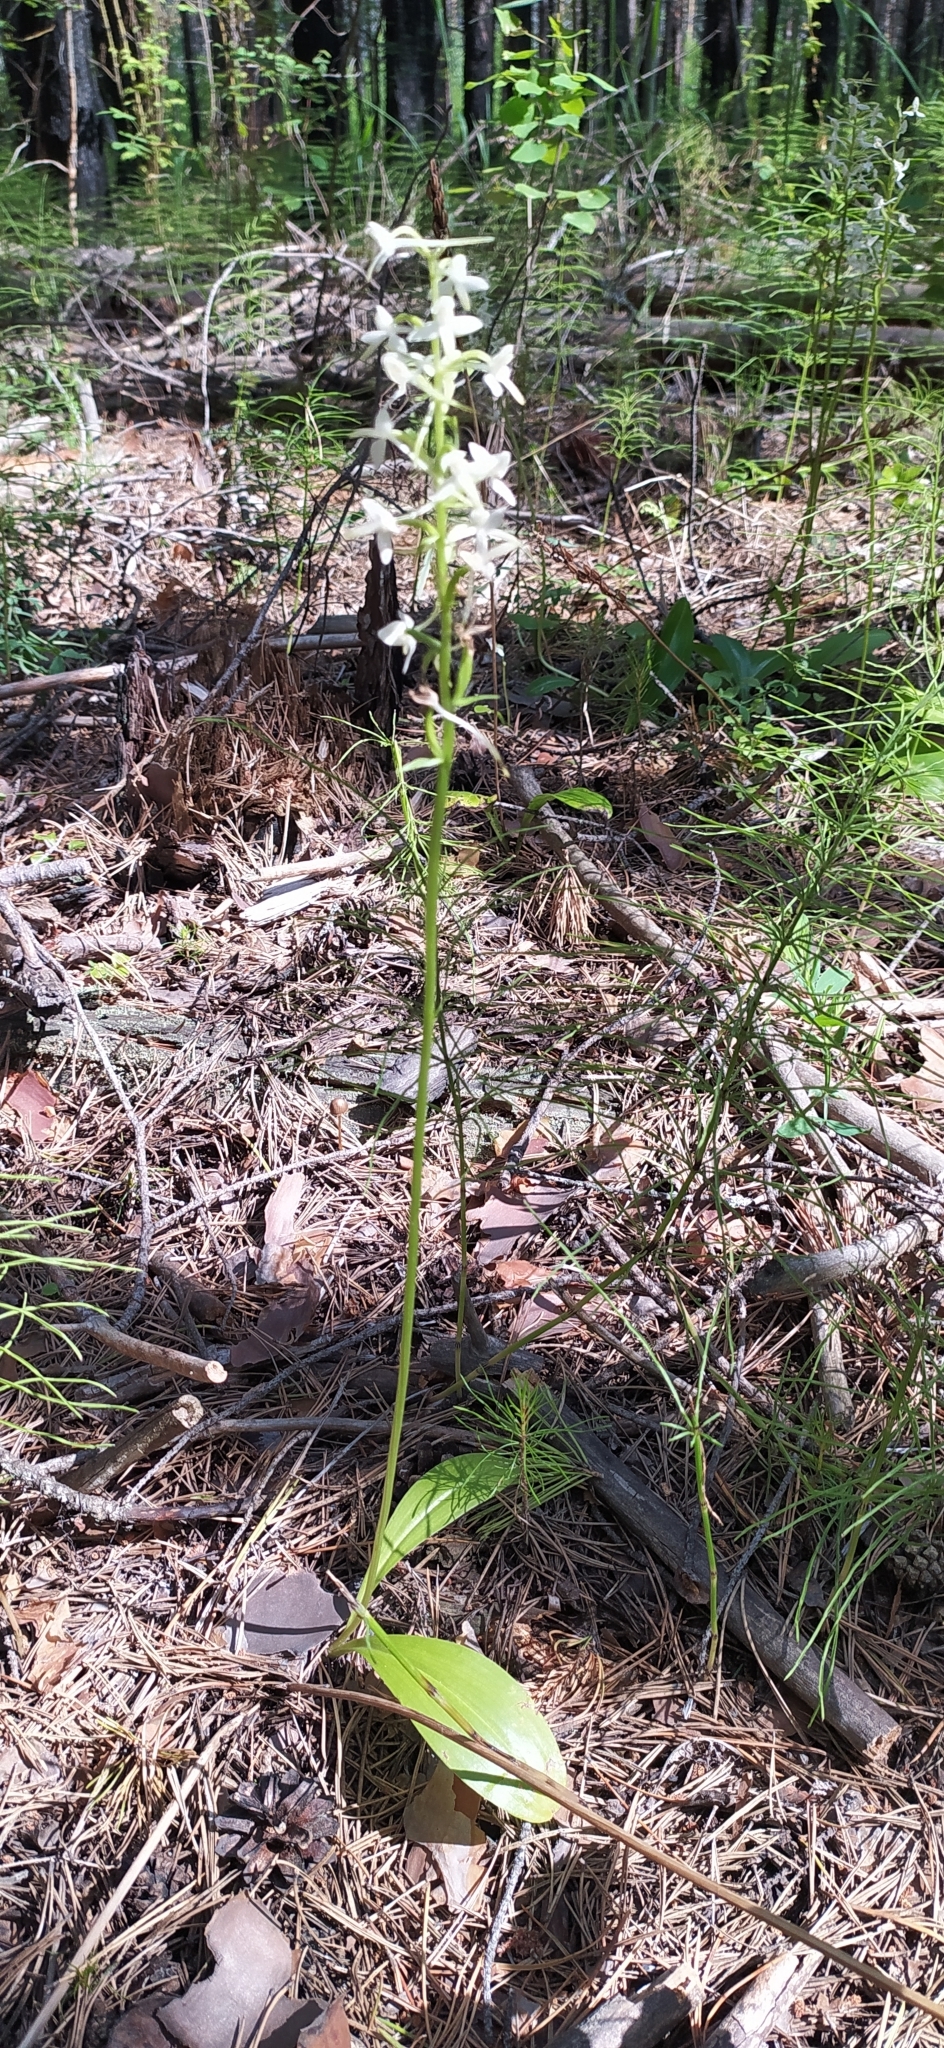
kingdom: Plantae
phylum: Tracheophyta
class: Liliopsida
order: Asparagales
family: Orchidaceae
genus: Platanthera
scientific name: Platanthera bifolia
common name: Lesser butterfly-orchid
